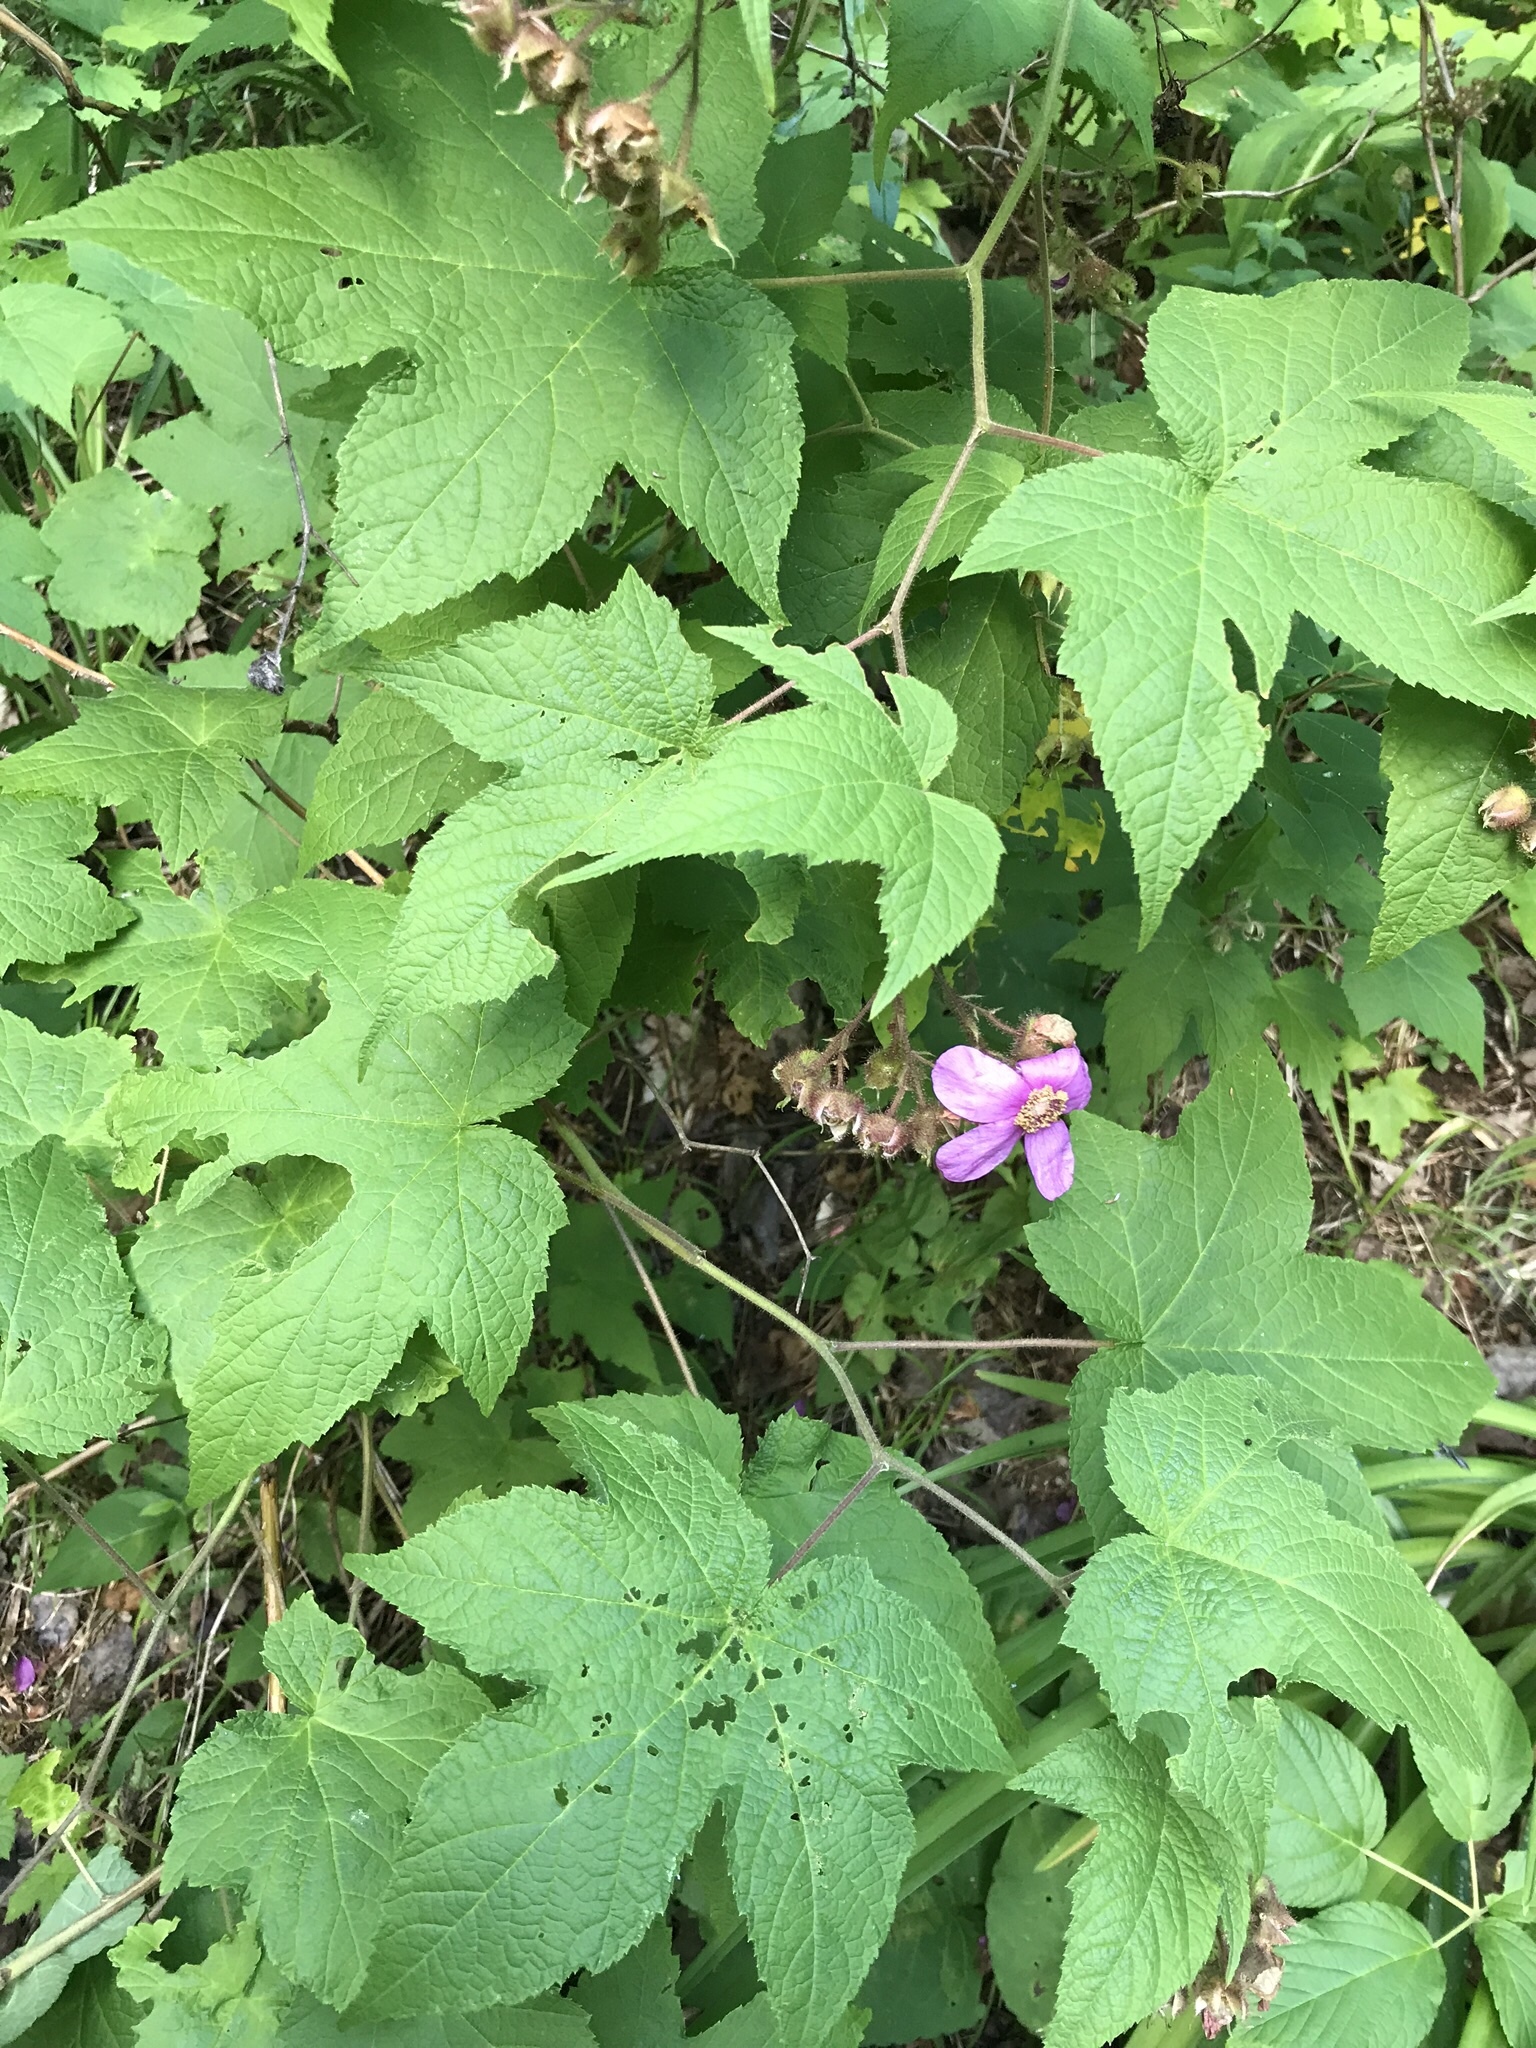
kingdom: Plantae
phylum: Tracheophyta
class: Magnoliopsida
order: Rosales
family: Rosaceae
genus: Rubus
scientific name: Rubus odoratus
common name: Purple-flowered raspberry
